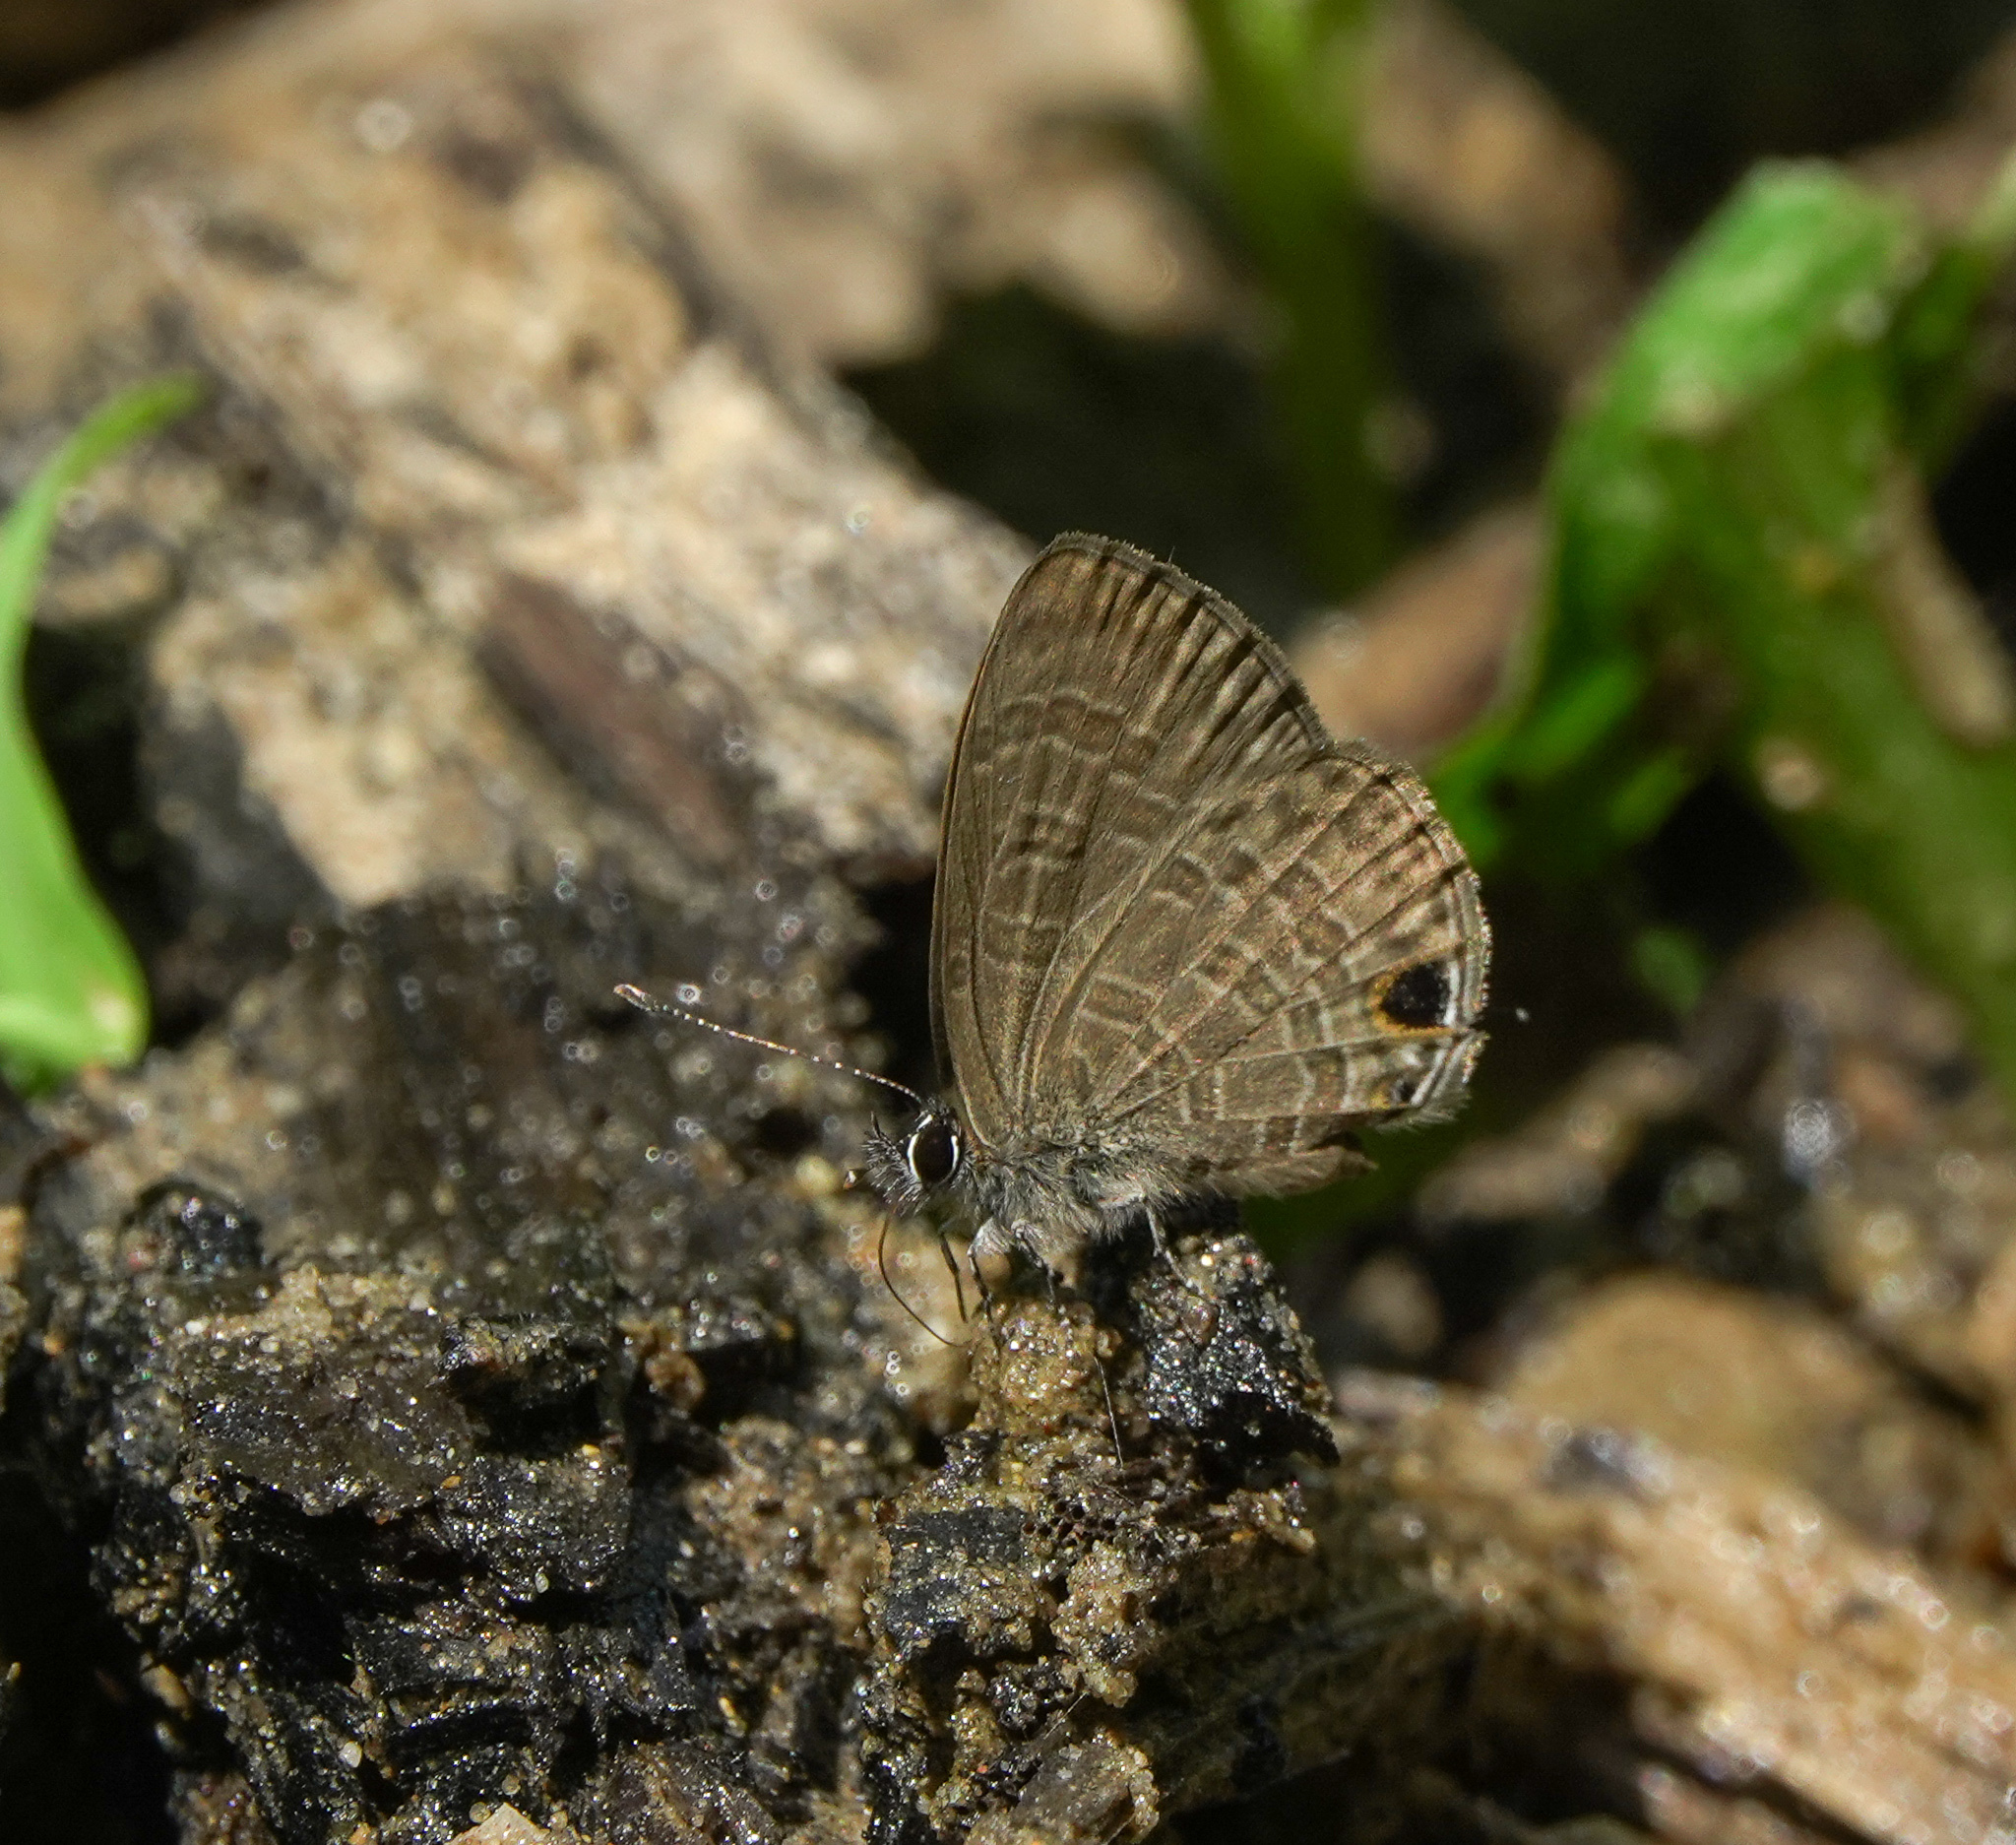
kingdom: Animalia
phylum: Arthropoda
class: Insecta
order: Lepidoptera
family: Lycaenidae
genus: Prosotas
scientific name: Prosotas nora
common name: Common line blue
